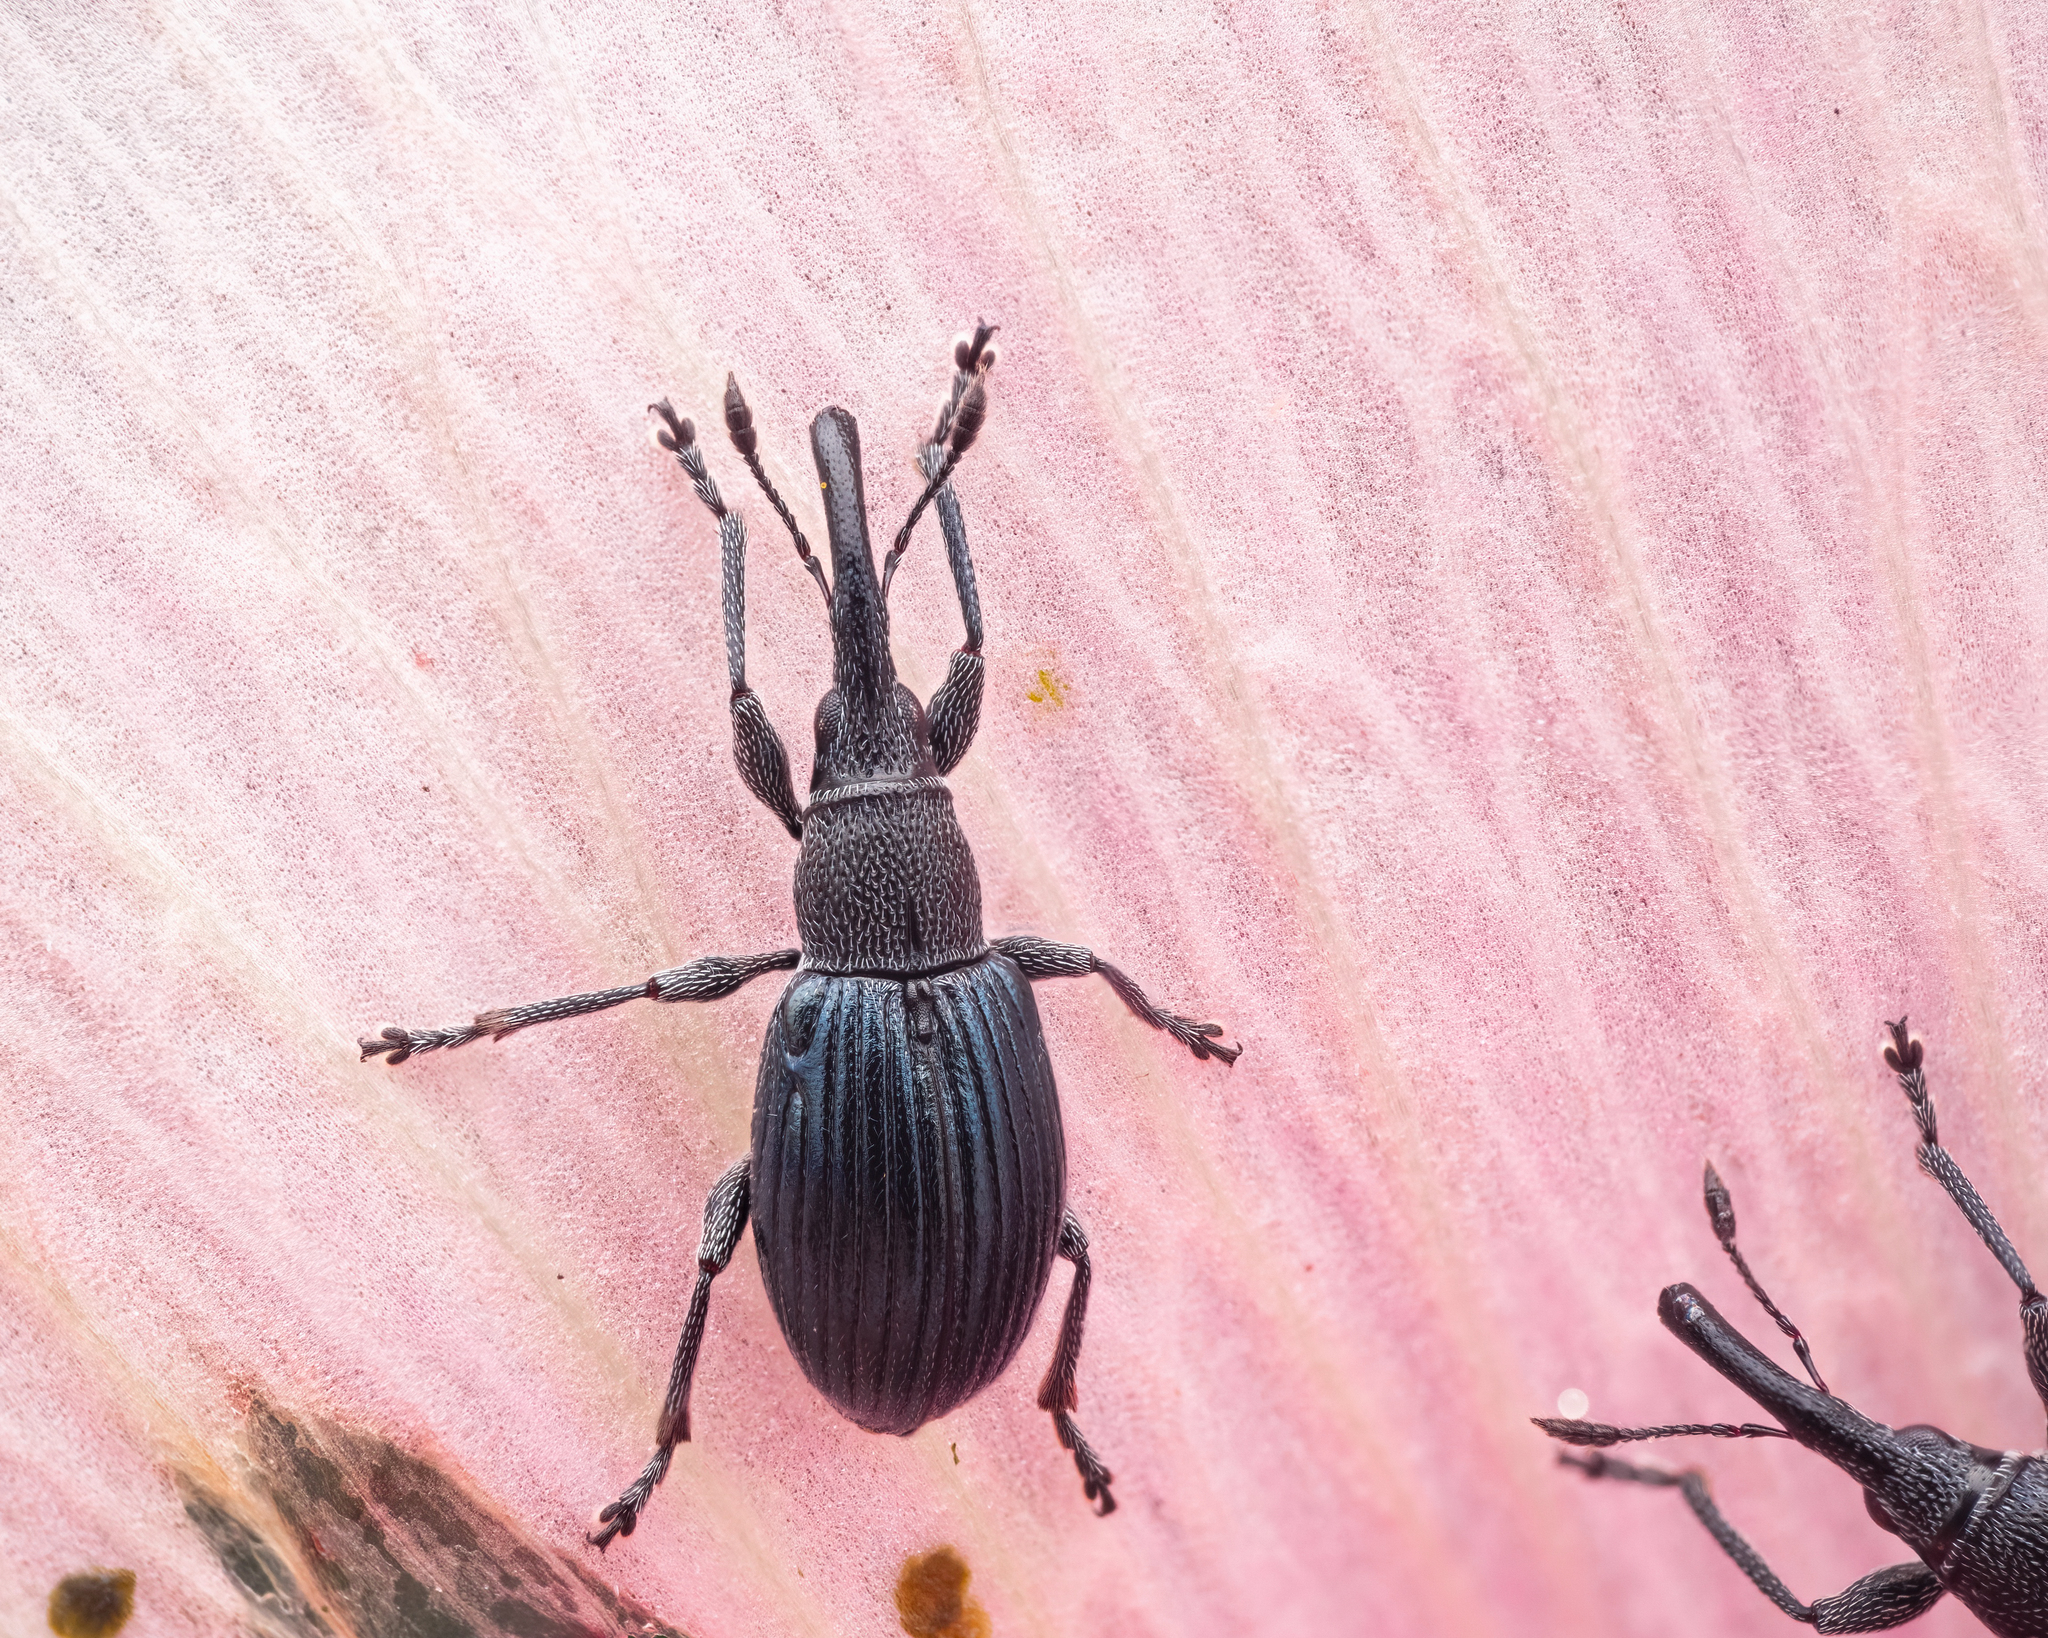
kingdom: Animalia
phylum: Arthropoda
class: Insecta
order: Coleoptera
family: Apionidae
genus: Aspidapion
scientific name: Aspidapion radiolus
